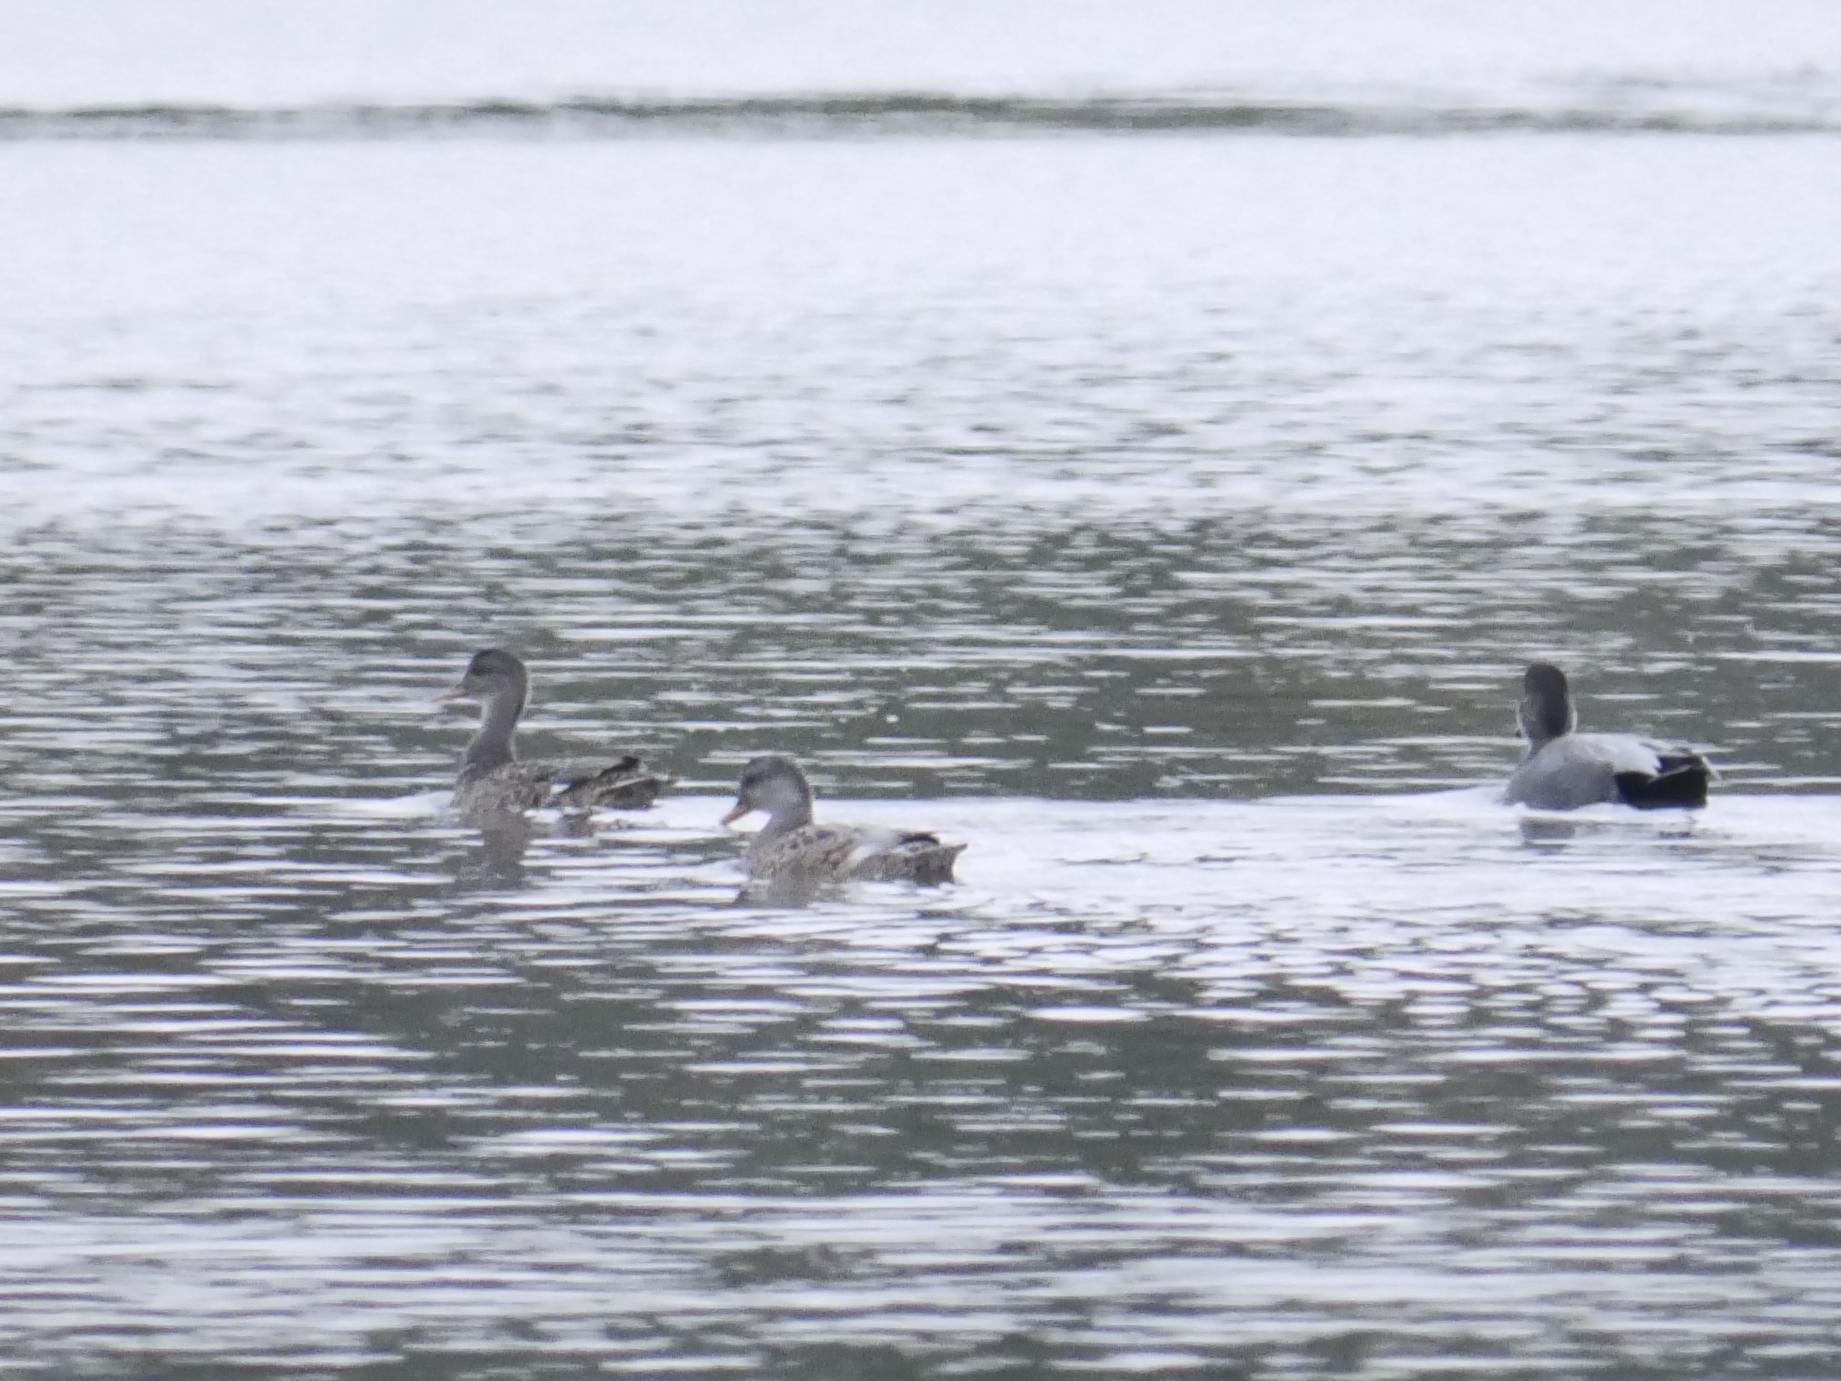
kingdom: Animalia
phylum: Chordata
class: Aves
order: Anseriformes
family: Anatidae
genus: Mareca
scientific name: Mareca strepera
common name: Gadwall
